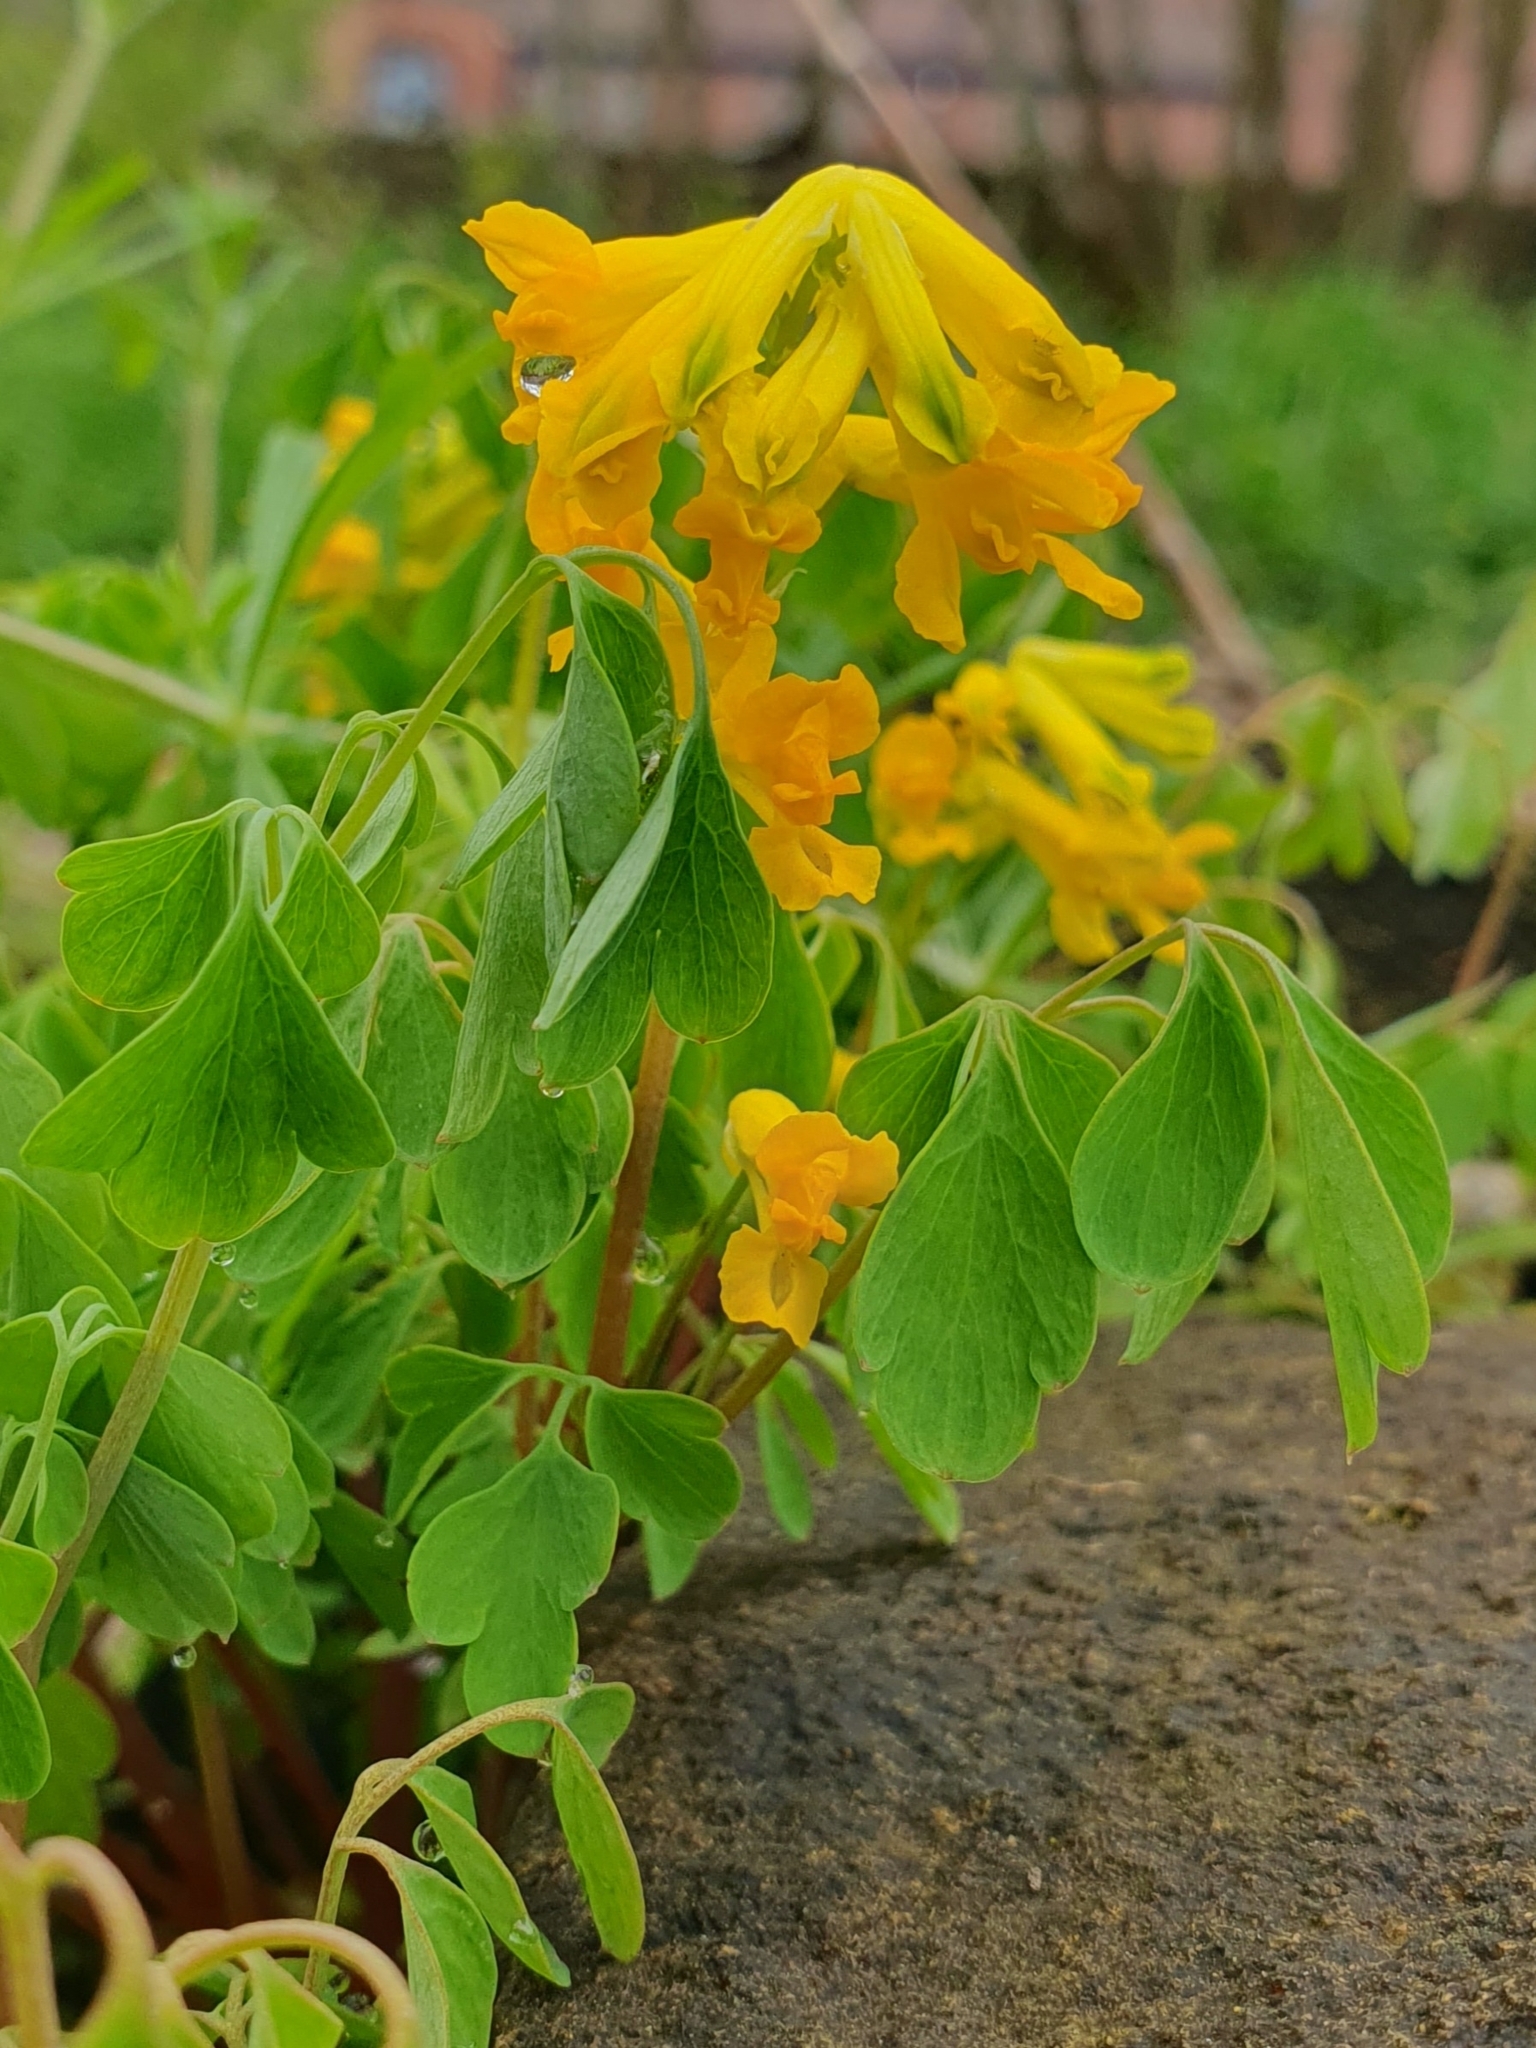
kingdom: Plantae
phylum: Tracheophyta
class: Magnoliopsida
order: Ranunculales
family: Papaveraceae
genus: Pseudofumaria
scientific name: Pseudofumaria lutea
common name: Yellow corydalis
